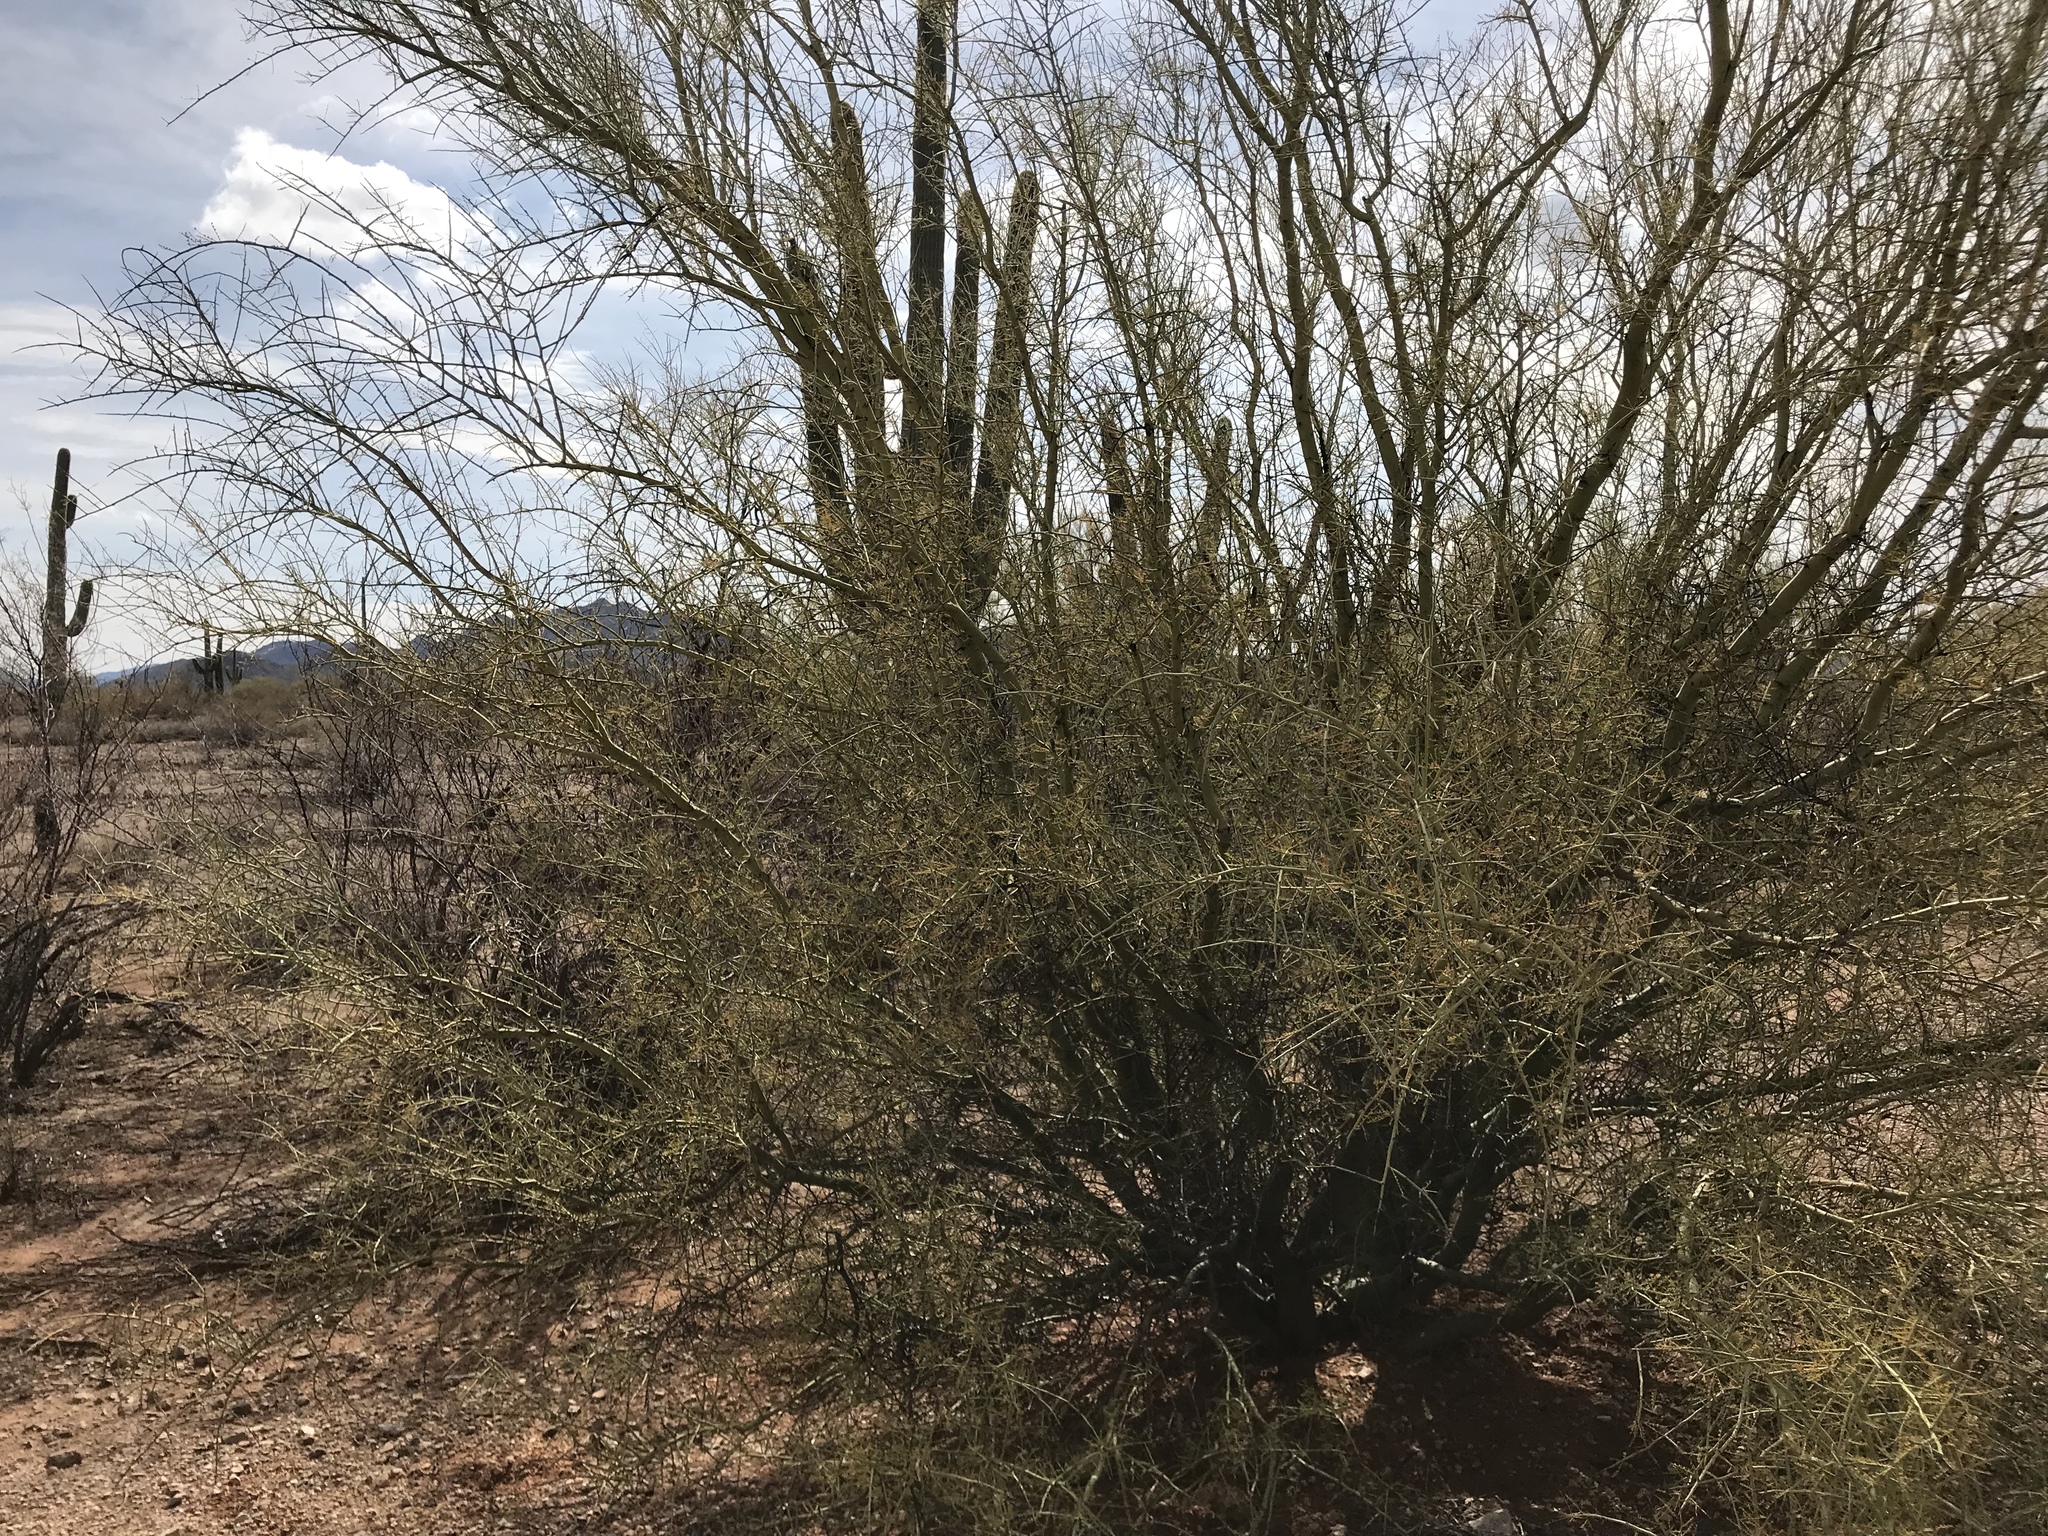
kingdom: Plantae
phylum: Tracheophyta
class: Magnoliopsida
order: Fabales
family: Fabaceae
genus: Parkinsonia
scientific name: Parkinsonia microphylla
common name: Yellow paloverde
